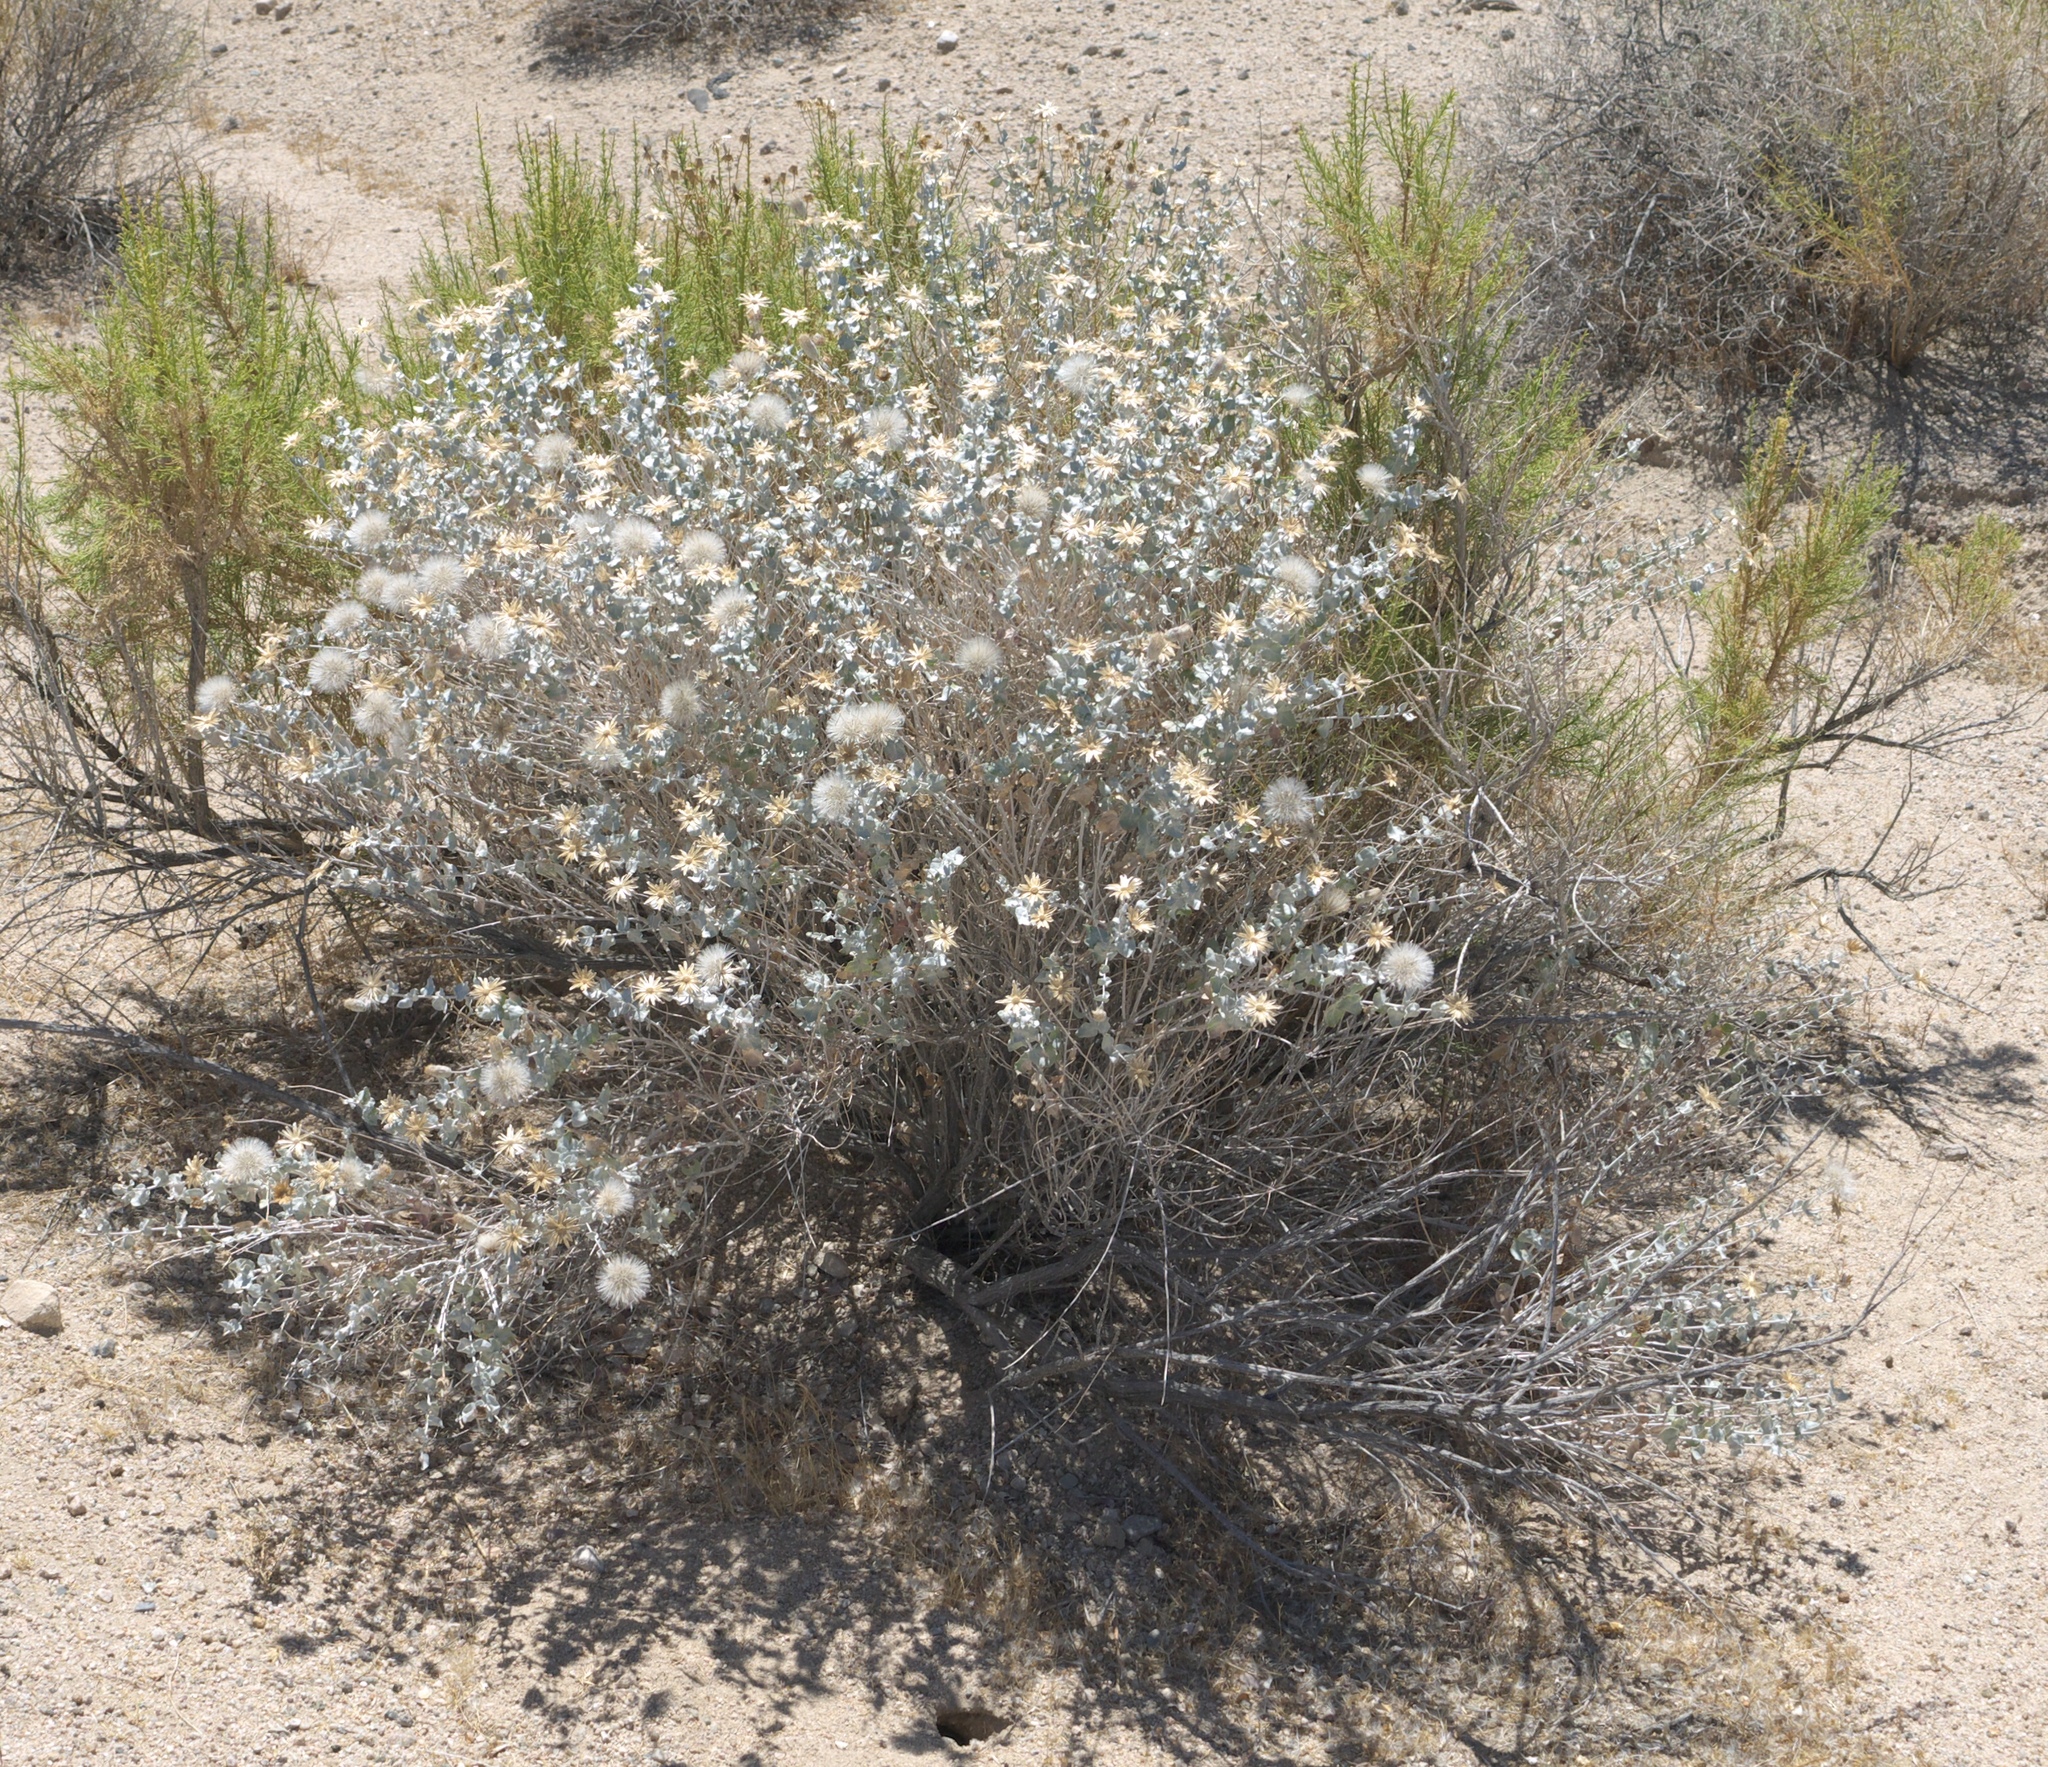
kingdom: Plantae
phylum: Tracheophyta
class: Magnoliopsida
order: Asterales
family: Asteraceae
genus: Brickellia
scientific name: Brickellia incana
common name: Woolly brickelbush
